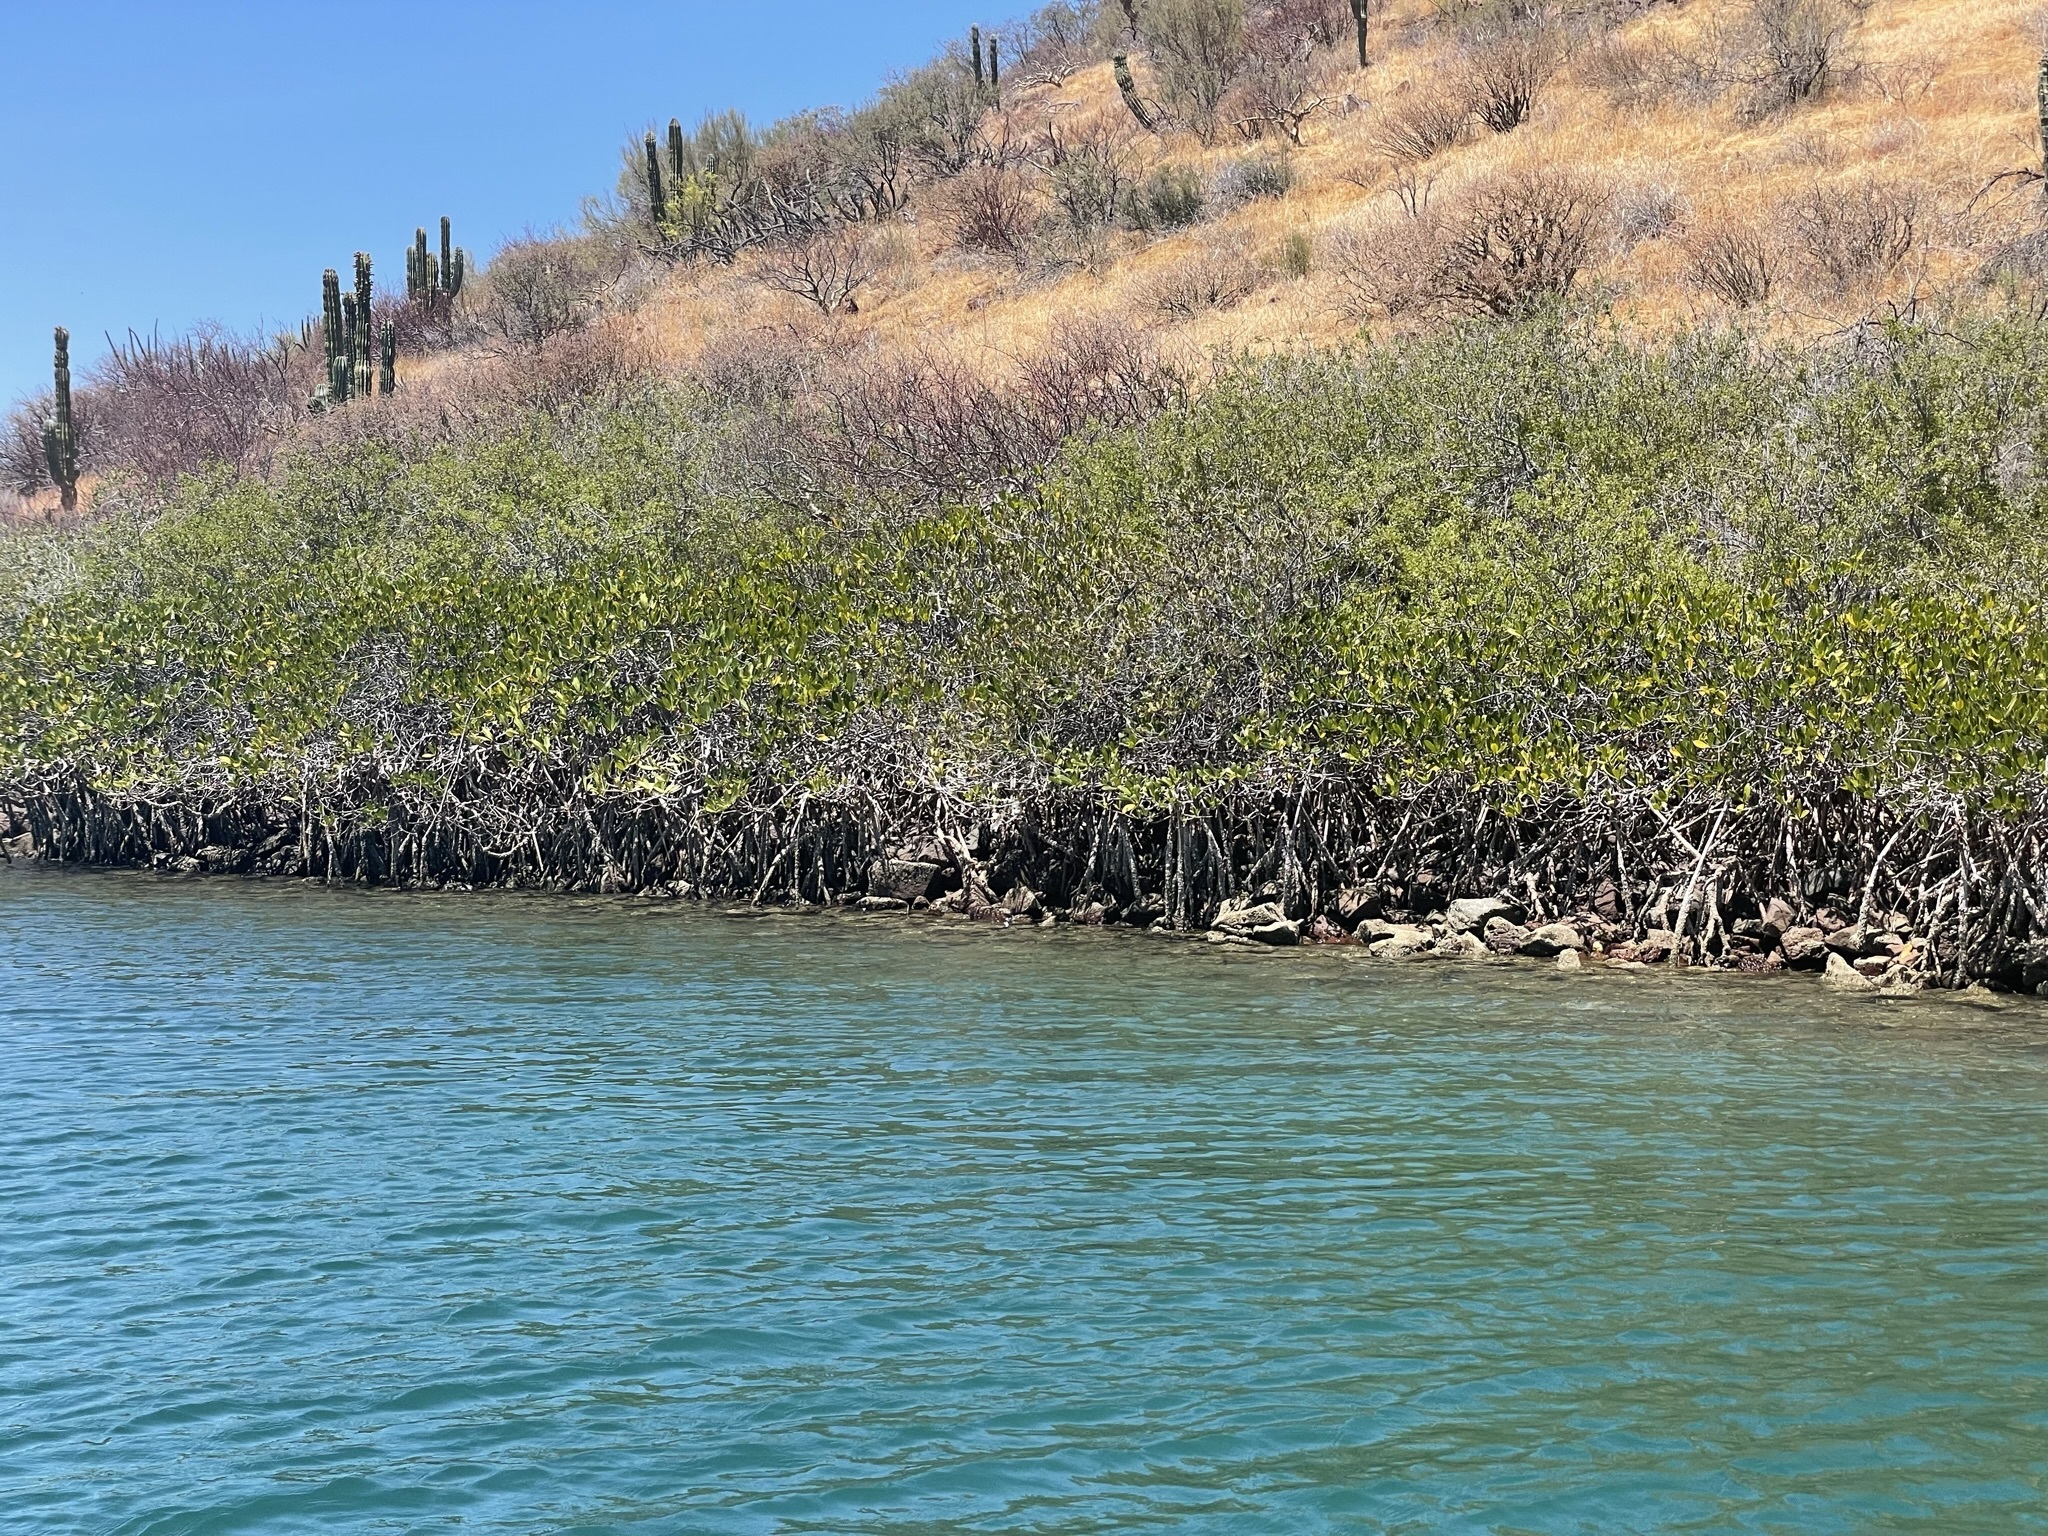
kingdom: Plantae
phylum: Tracheophyta
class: Magnoliopsida
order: Malpighiales
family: Rhizophoraceae
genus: Rhizophora
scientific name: Rhizophora mangle
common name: Red mangrove
